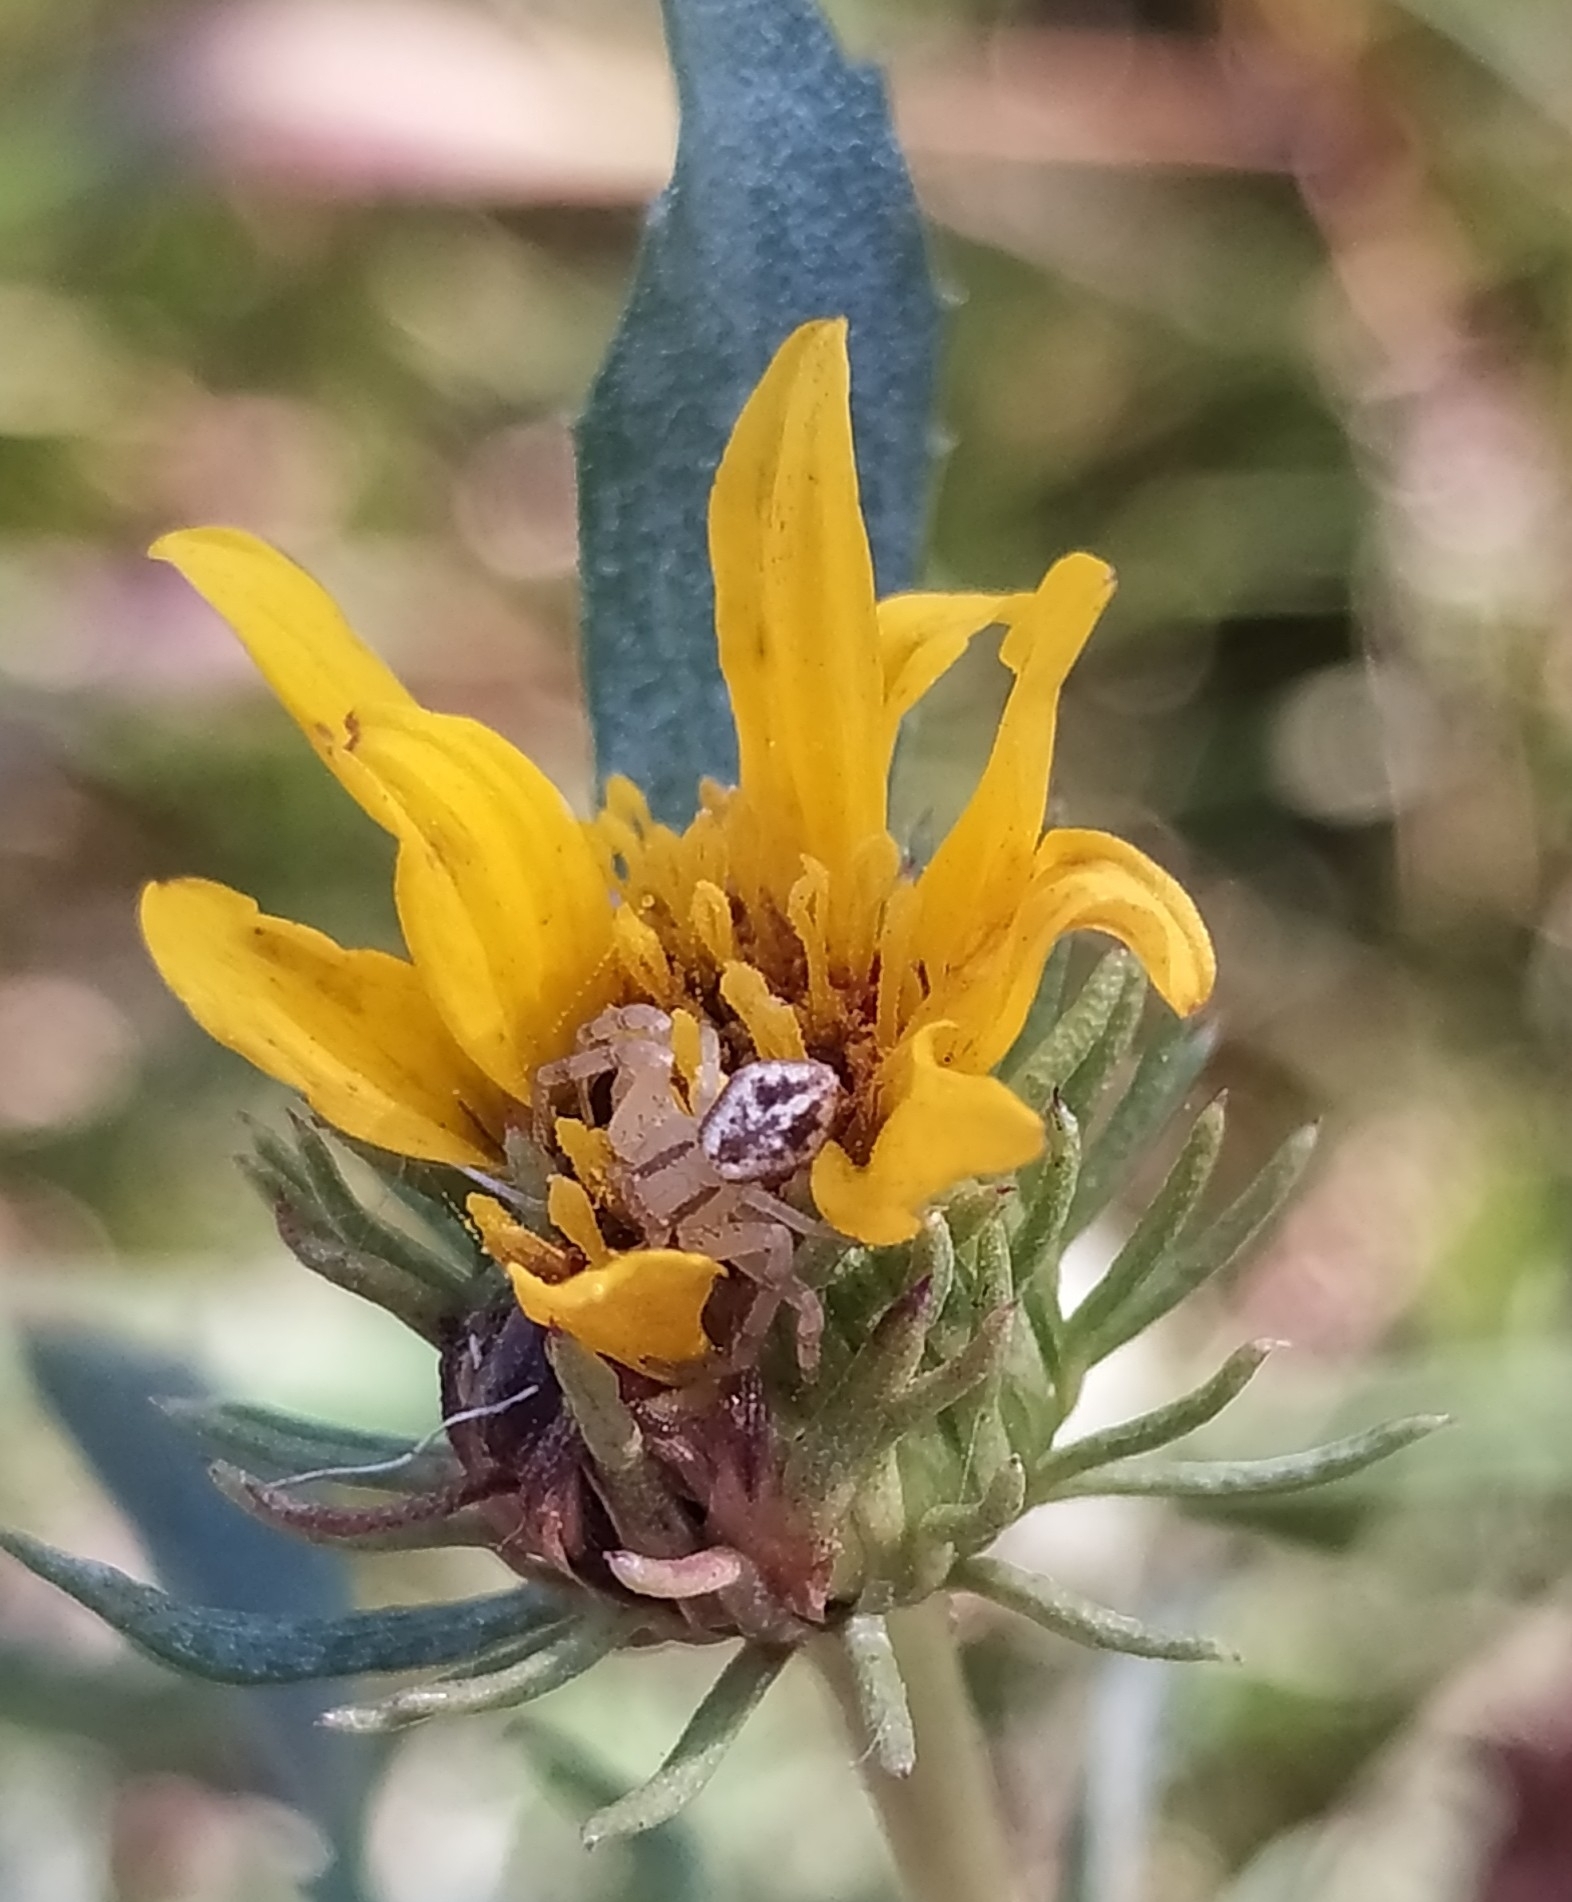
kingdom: Animalia
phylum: Arthropoda
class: Arachnida
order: Araneae
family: Thomisidae
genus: Misumenops
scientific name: Misumenops
